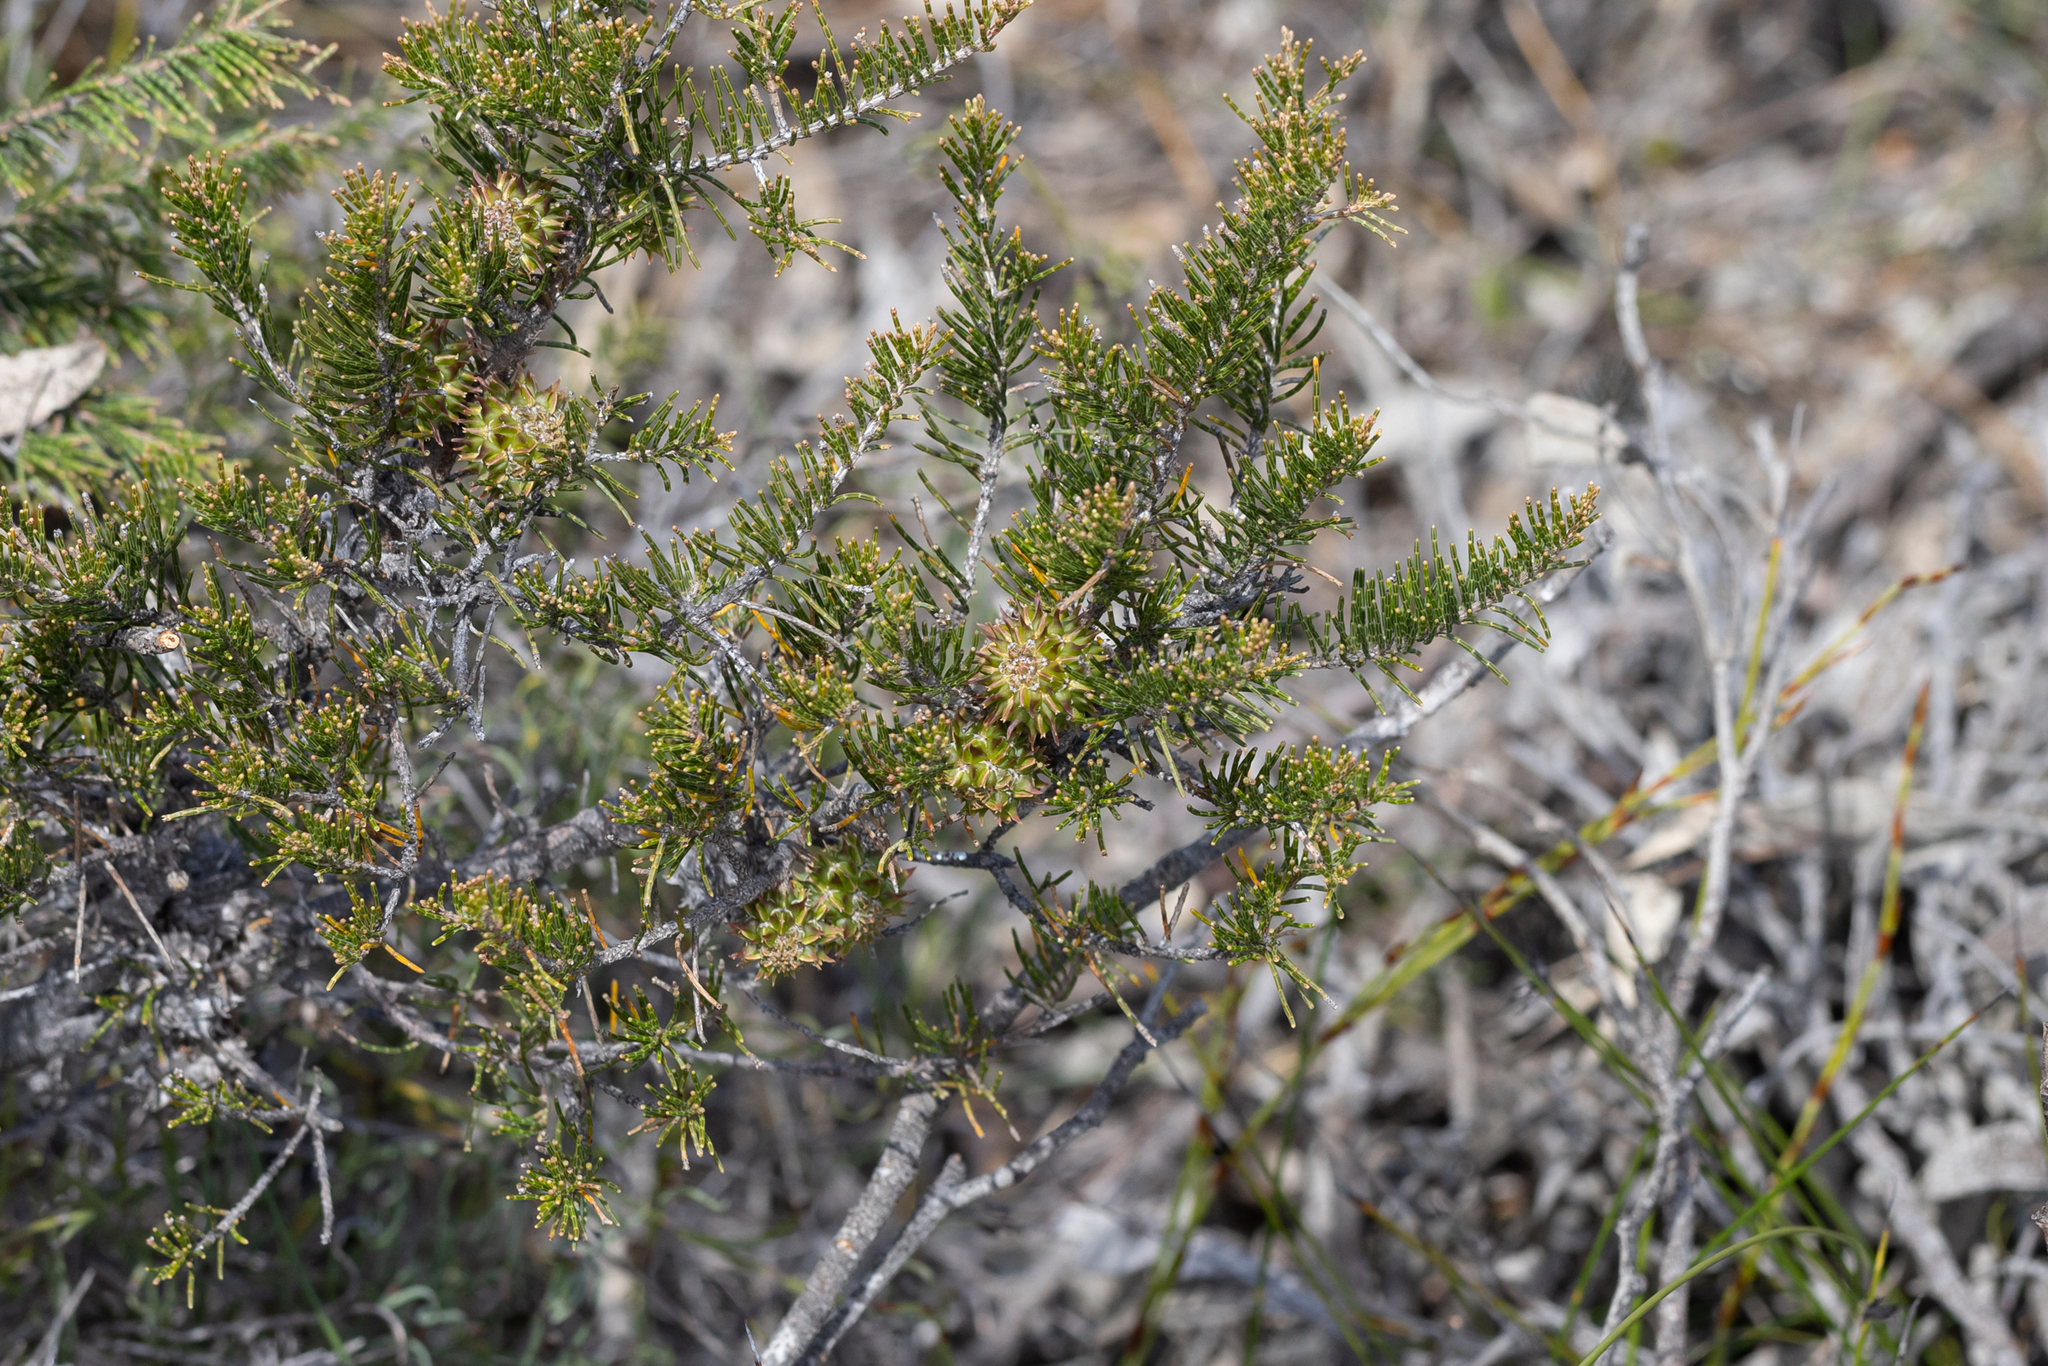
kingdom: Plantae
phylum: Tracheophyta
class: Magnoliopsida
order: Fagales
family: Casuarinaceae
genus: Allocasuarina
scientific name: Allocasuarina thuyoides
